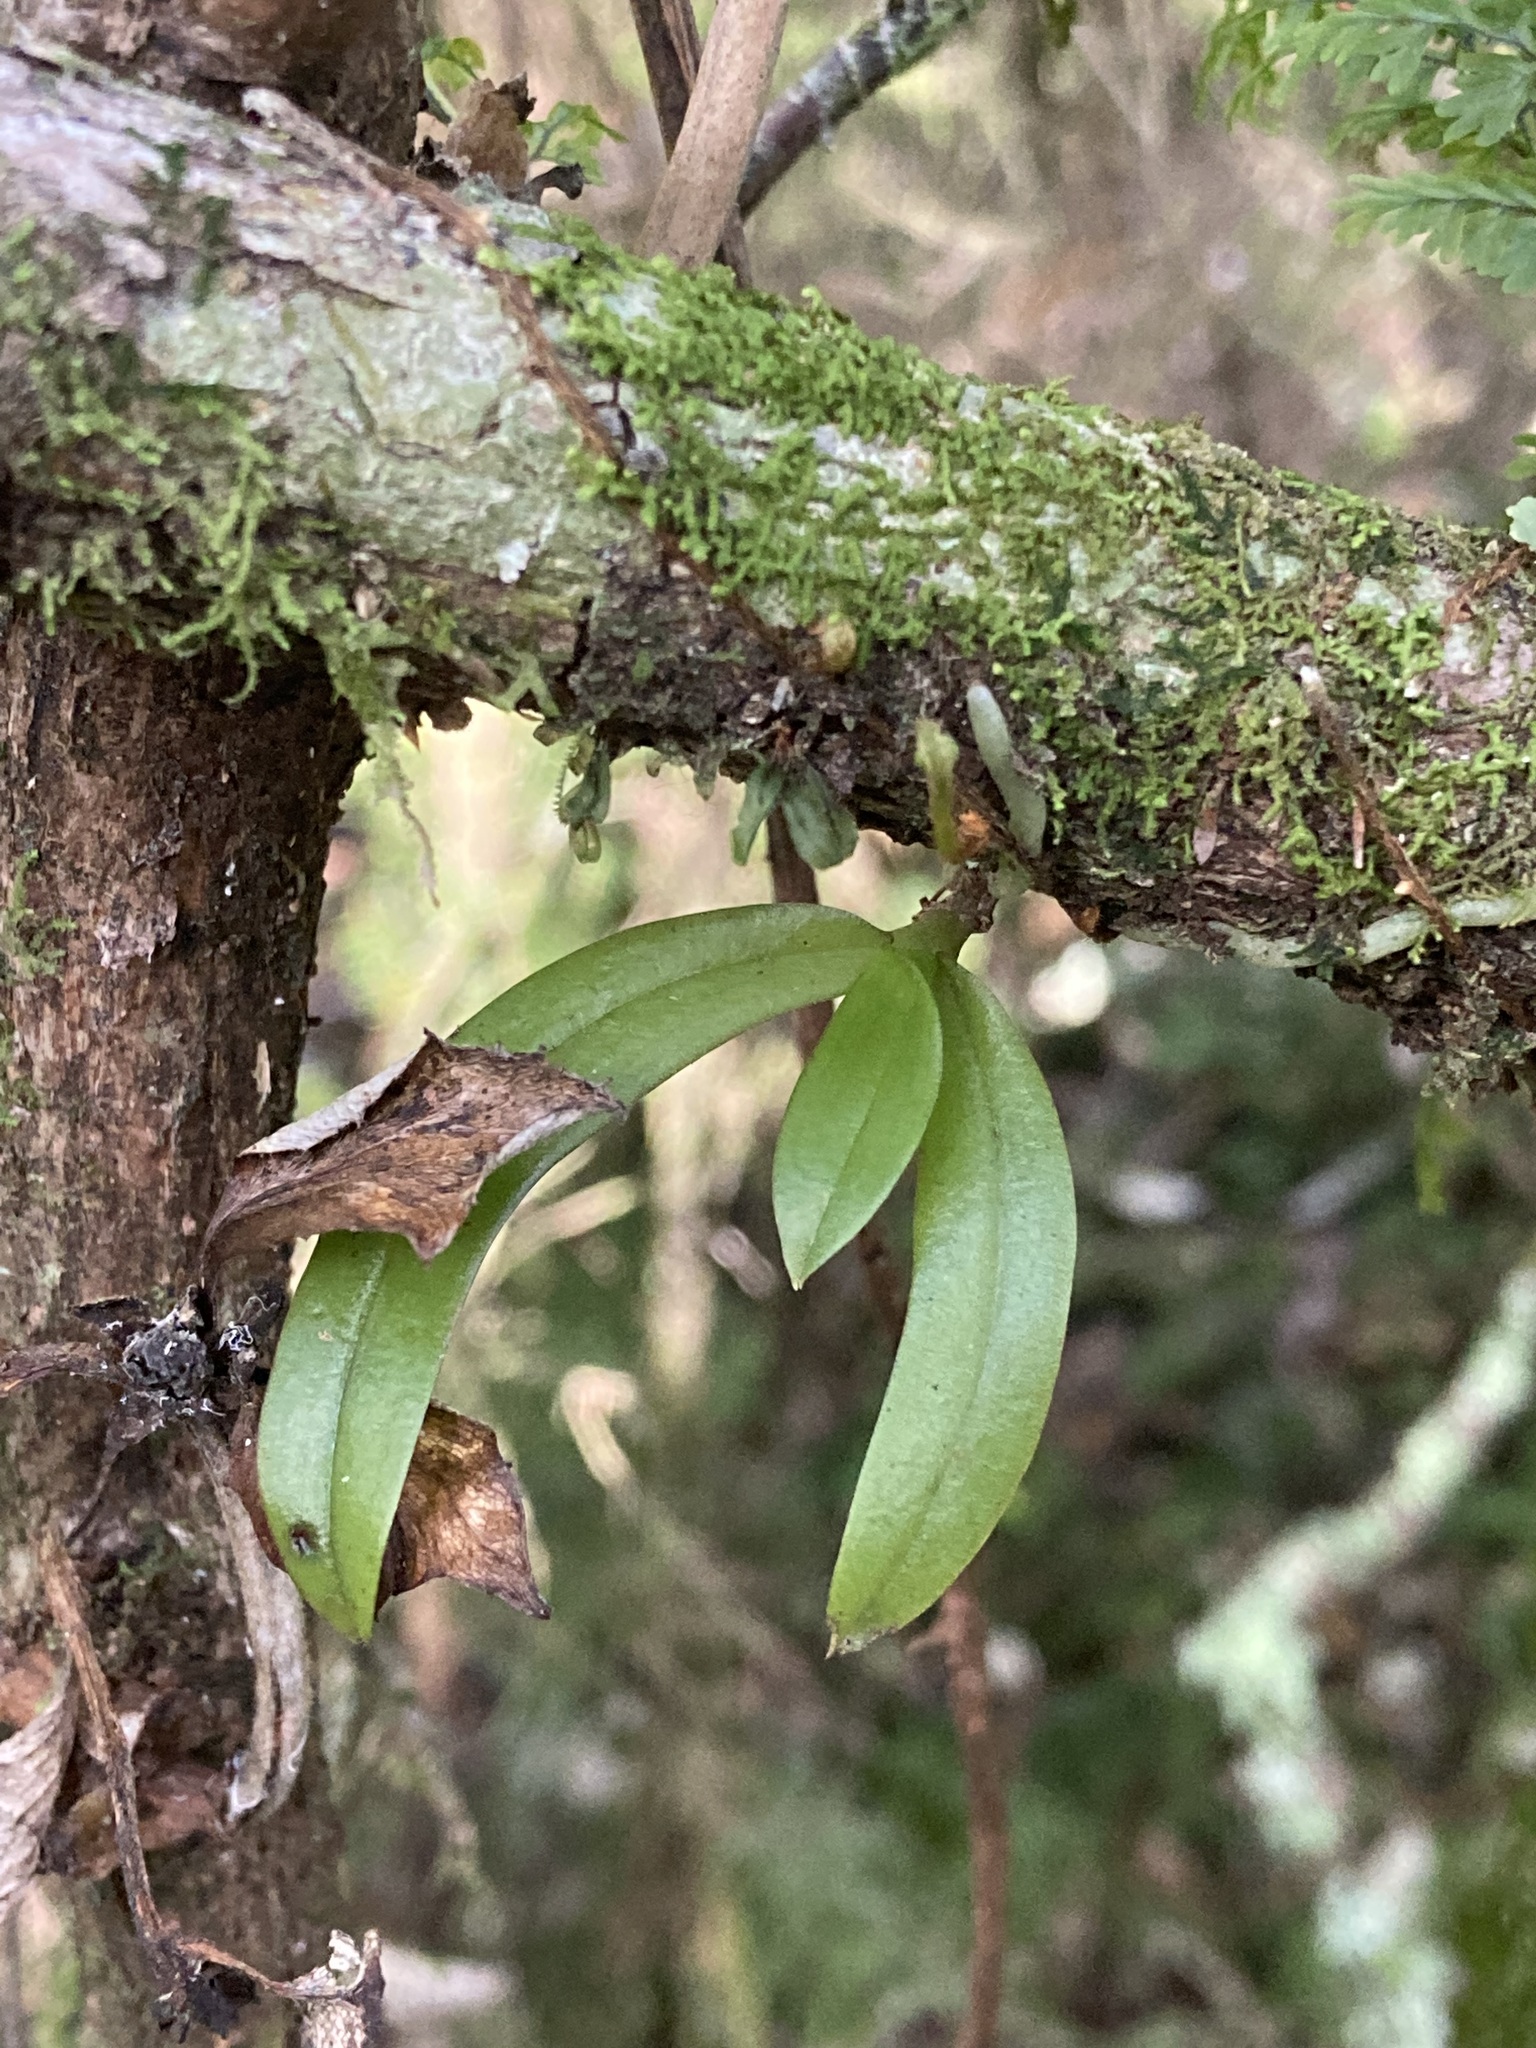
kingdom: Plantae
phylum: Tracheophyta
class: Liliopsida
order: Asparagales
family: Orchidaceae
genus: Drymoanthus
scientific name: Drymoanthus adversus
